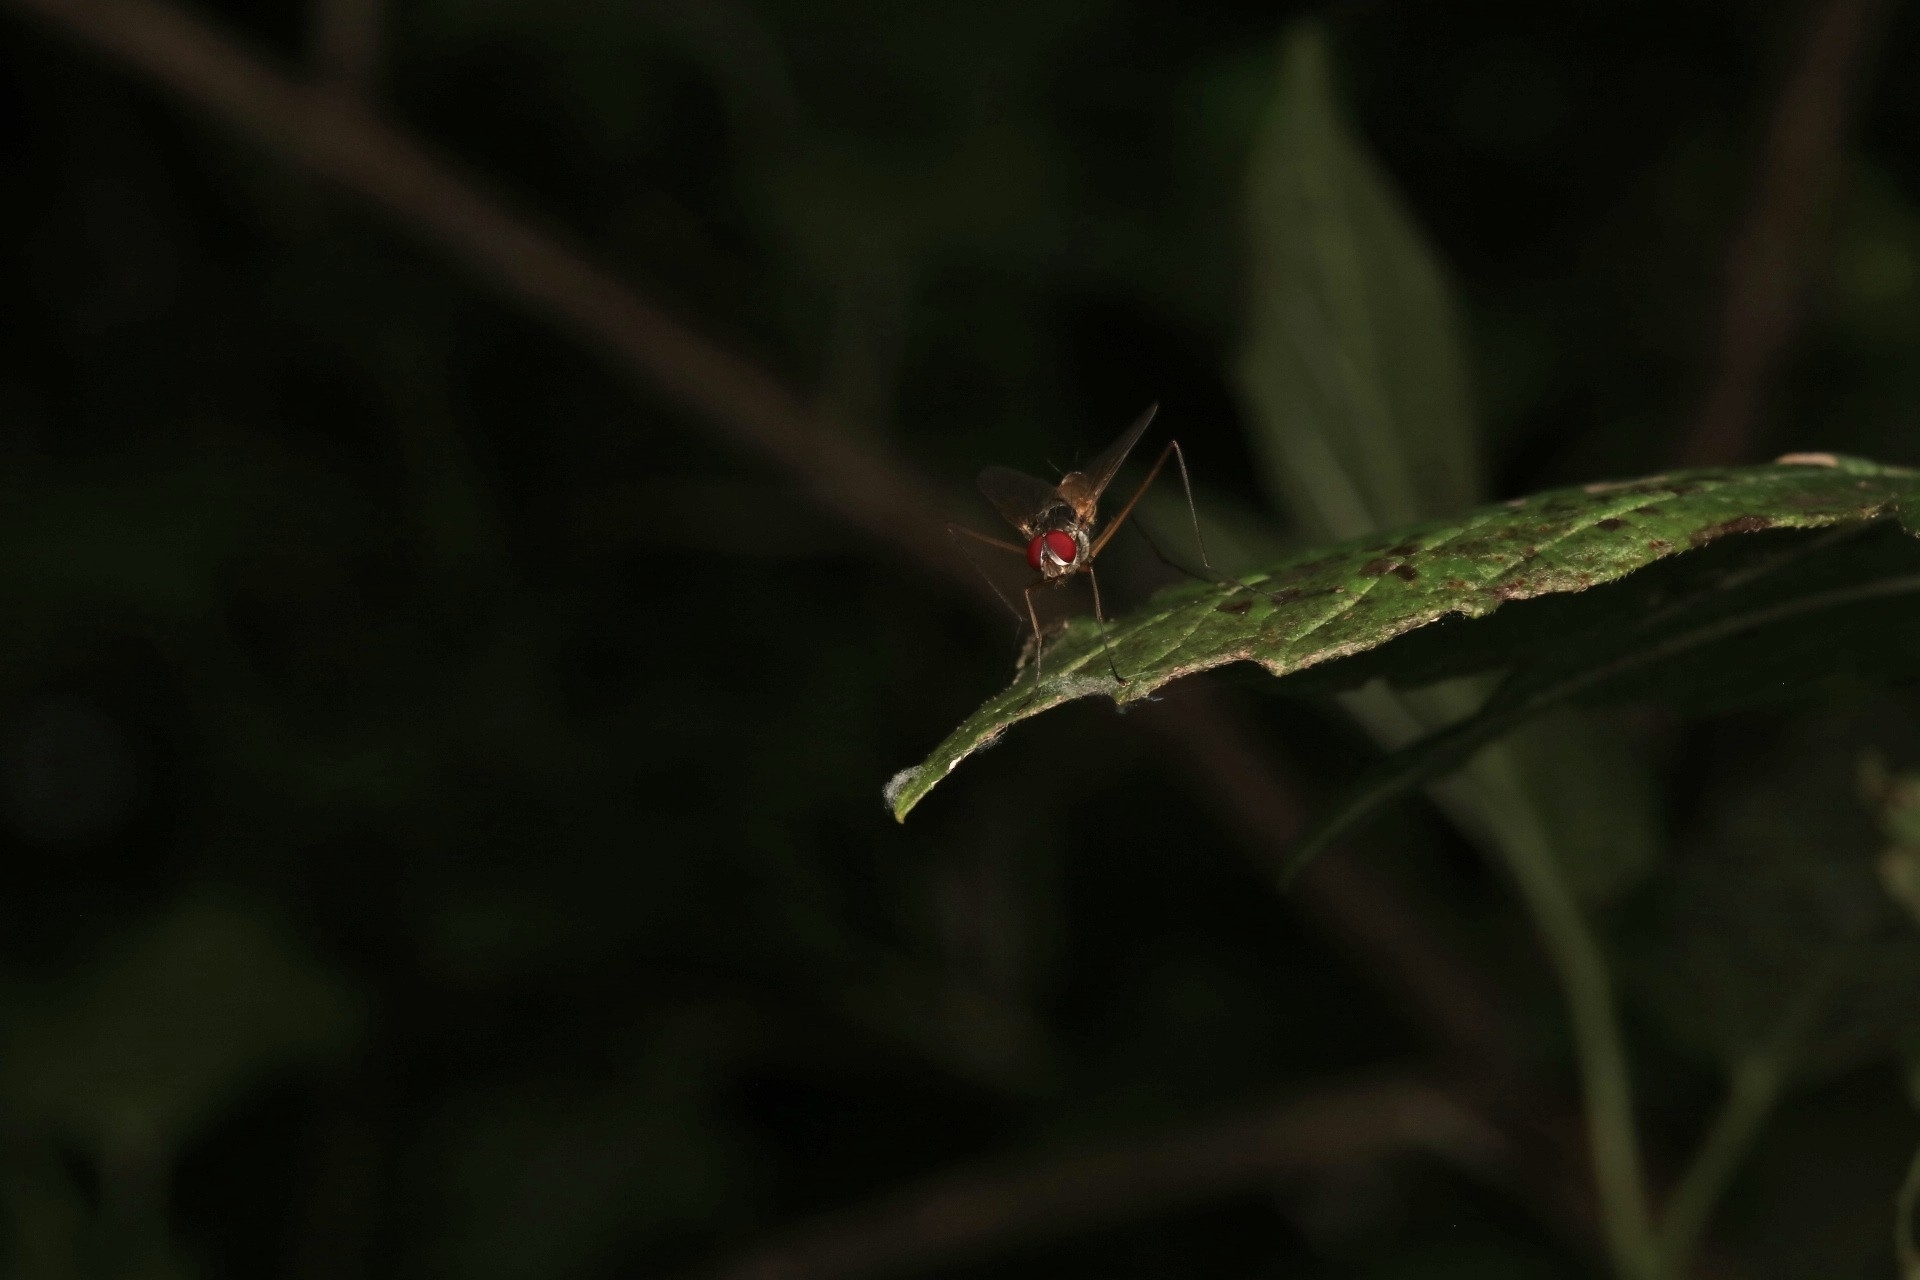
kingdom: Animalia
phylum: Arthropoda
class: Insecta
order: Diptera
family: Tachinidae
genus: Cholomyia
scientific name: Cholomyia inaequipes
